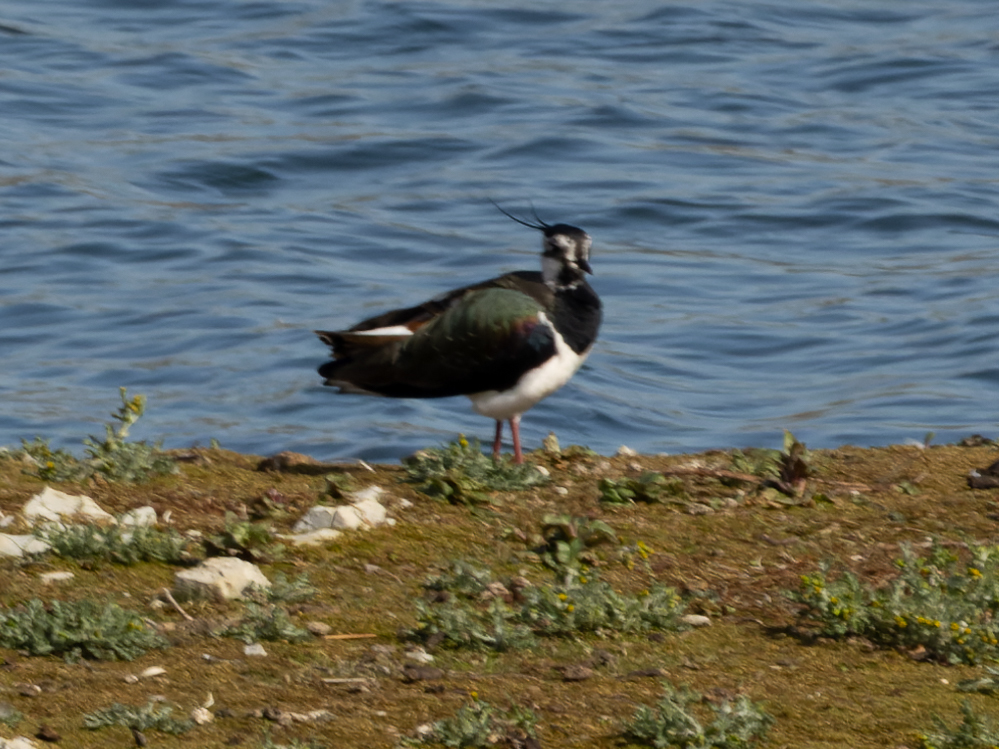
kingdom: Animalia
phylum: Chordata
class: Aves
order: Charadriiformes
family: Charadriidae
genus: Vanellus
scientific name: Vanellus vanellus
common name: Northern lapwing
